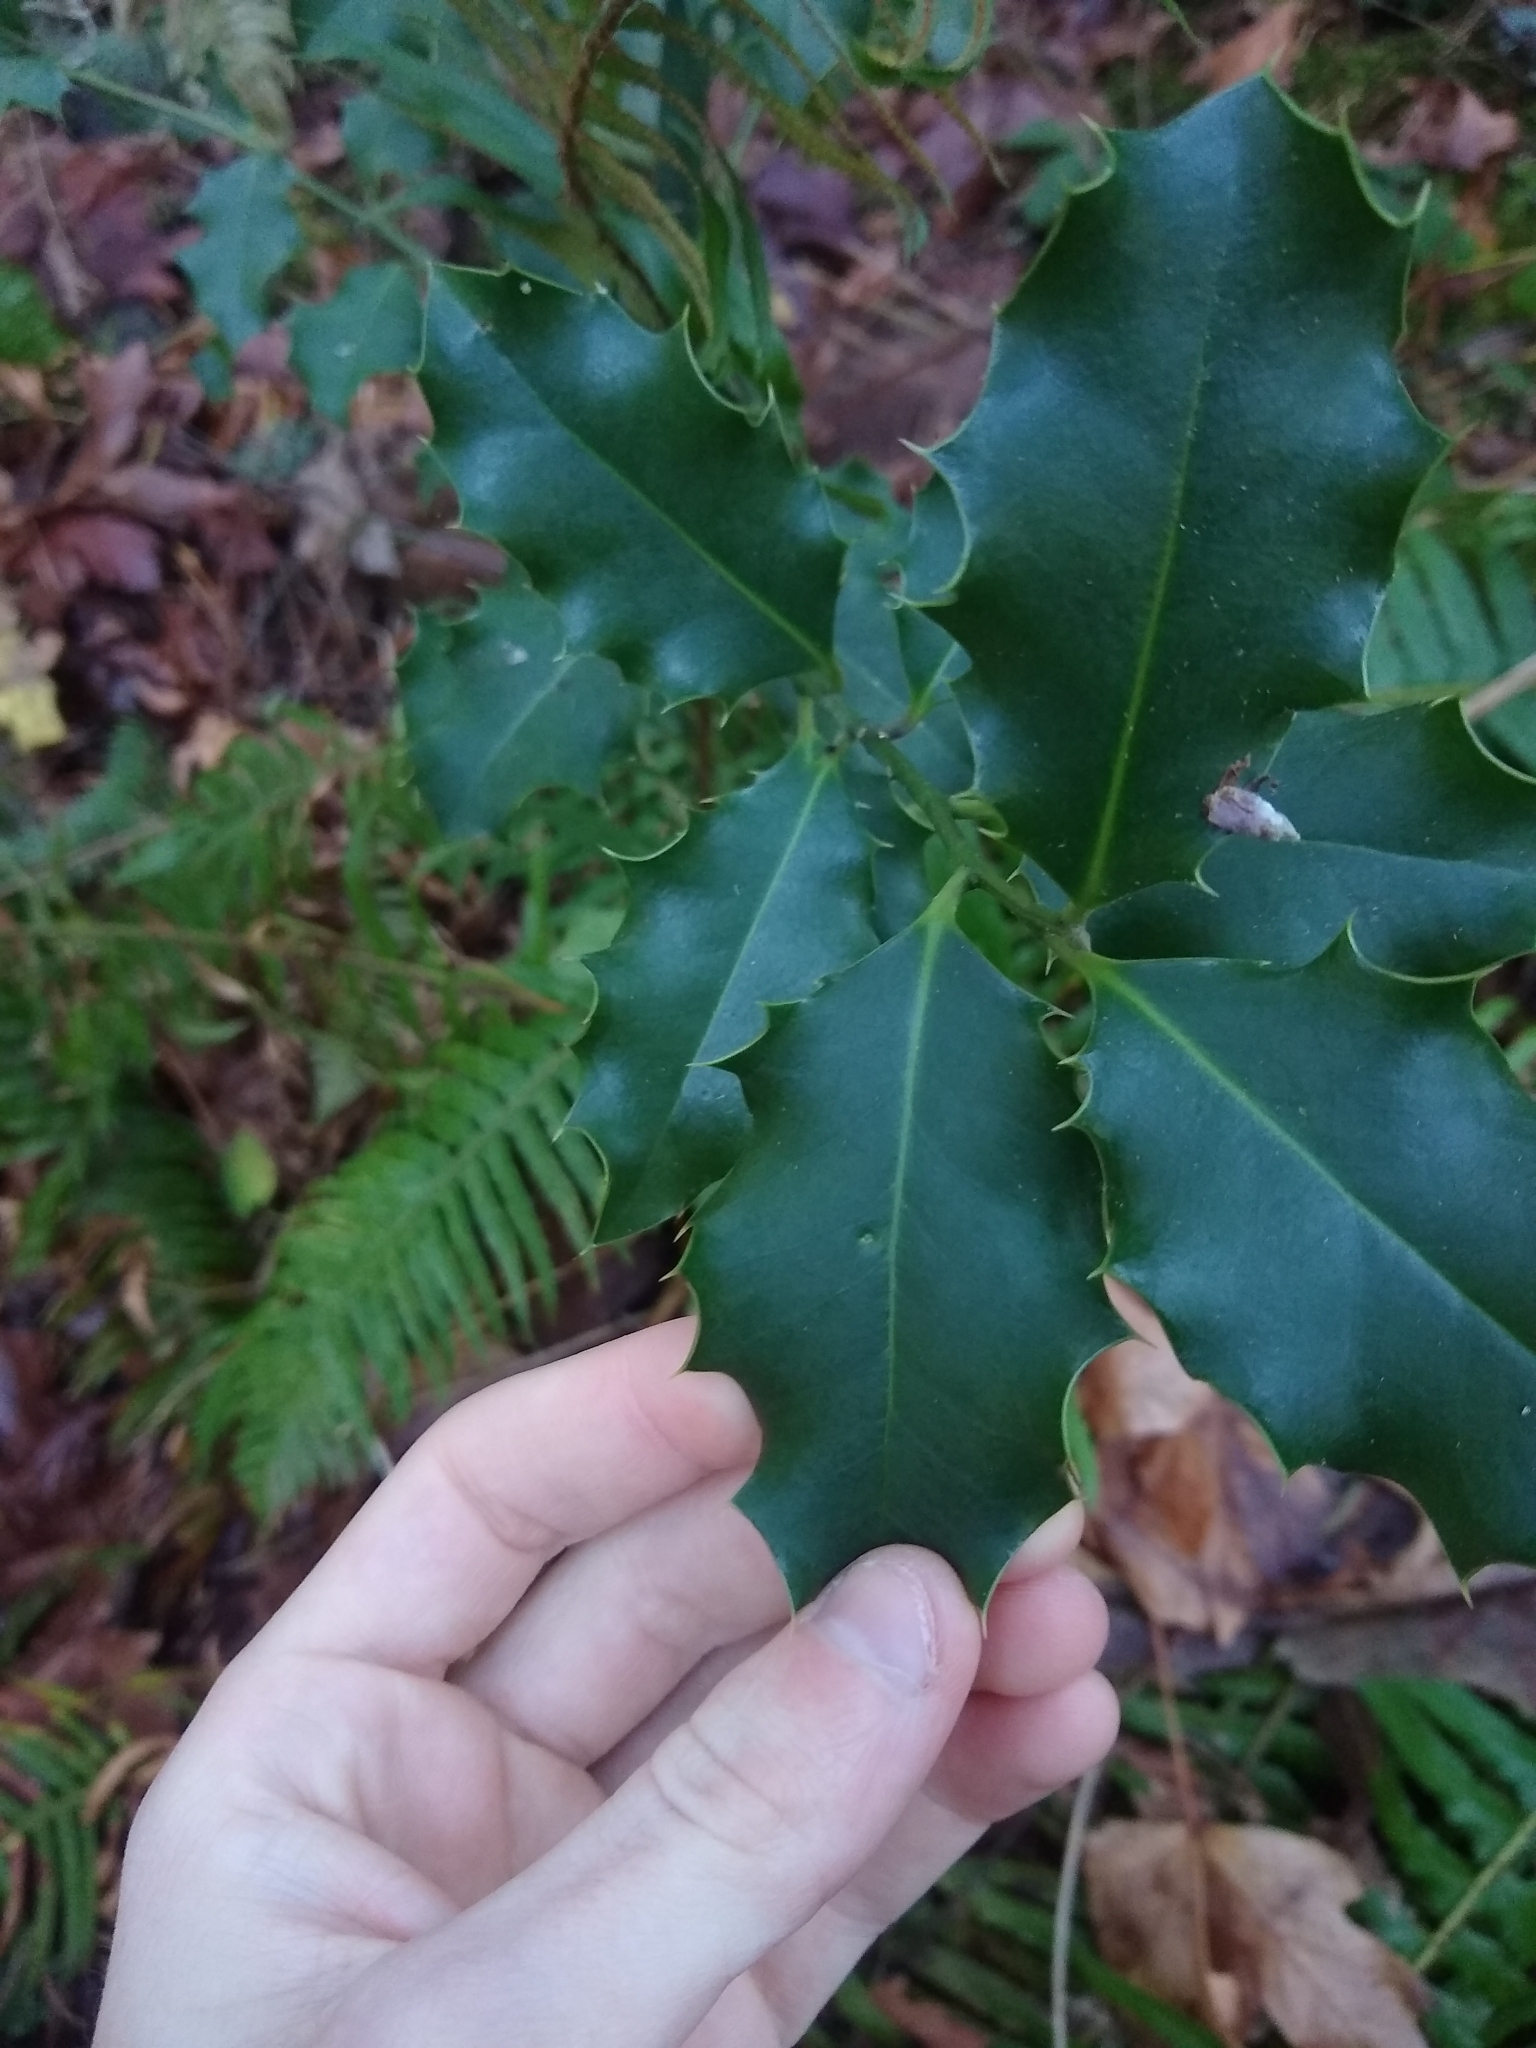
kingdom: Plantae
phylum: Tracheophyta
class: Magnoliopsida
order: Aquifoliales
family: Aquifoliaceae
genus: Ilex
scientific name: Ilex aquifolium
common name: English holly
